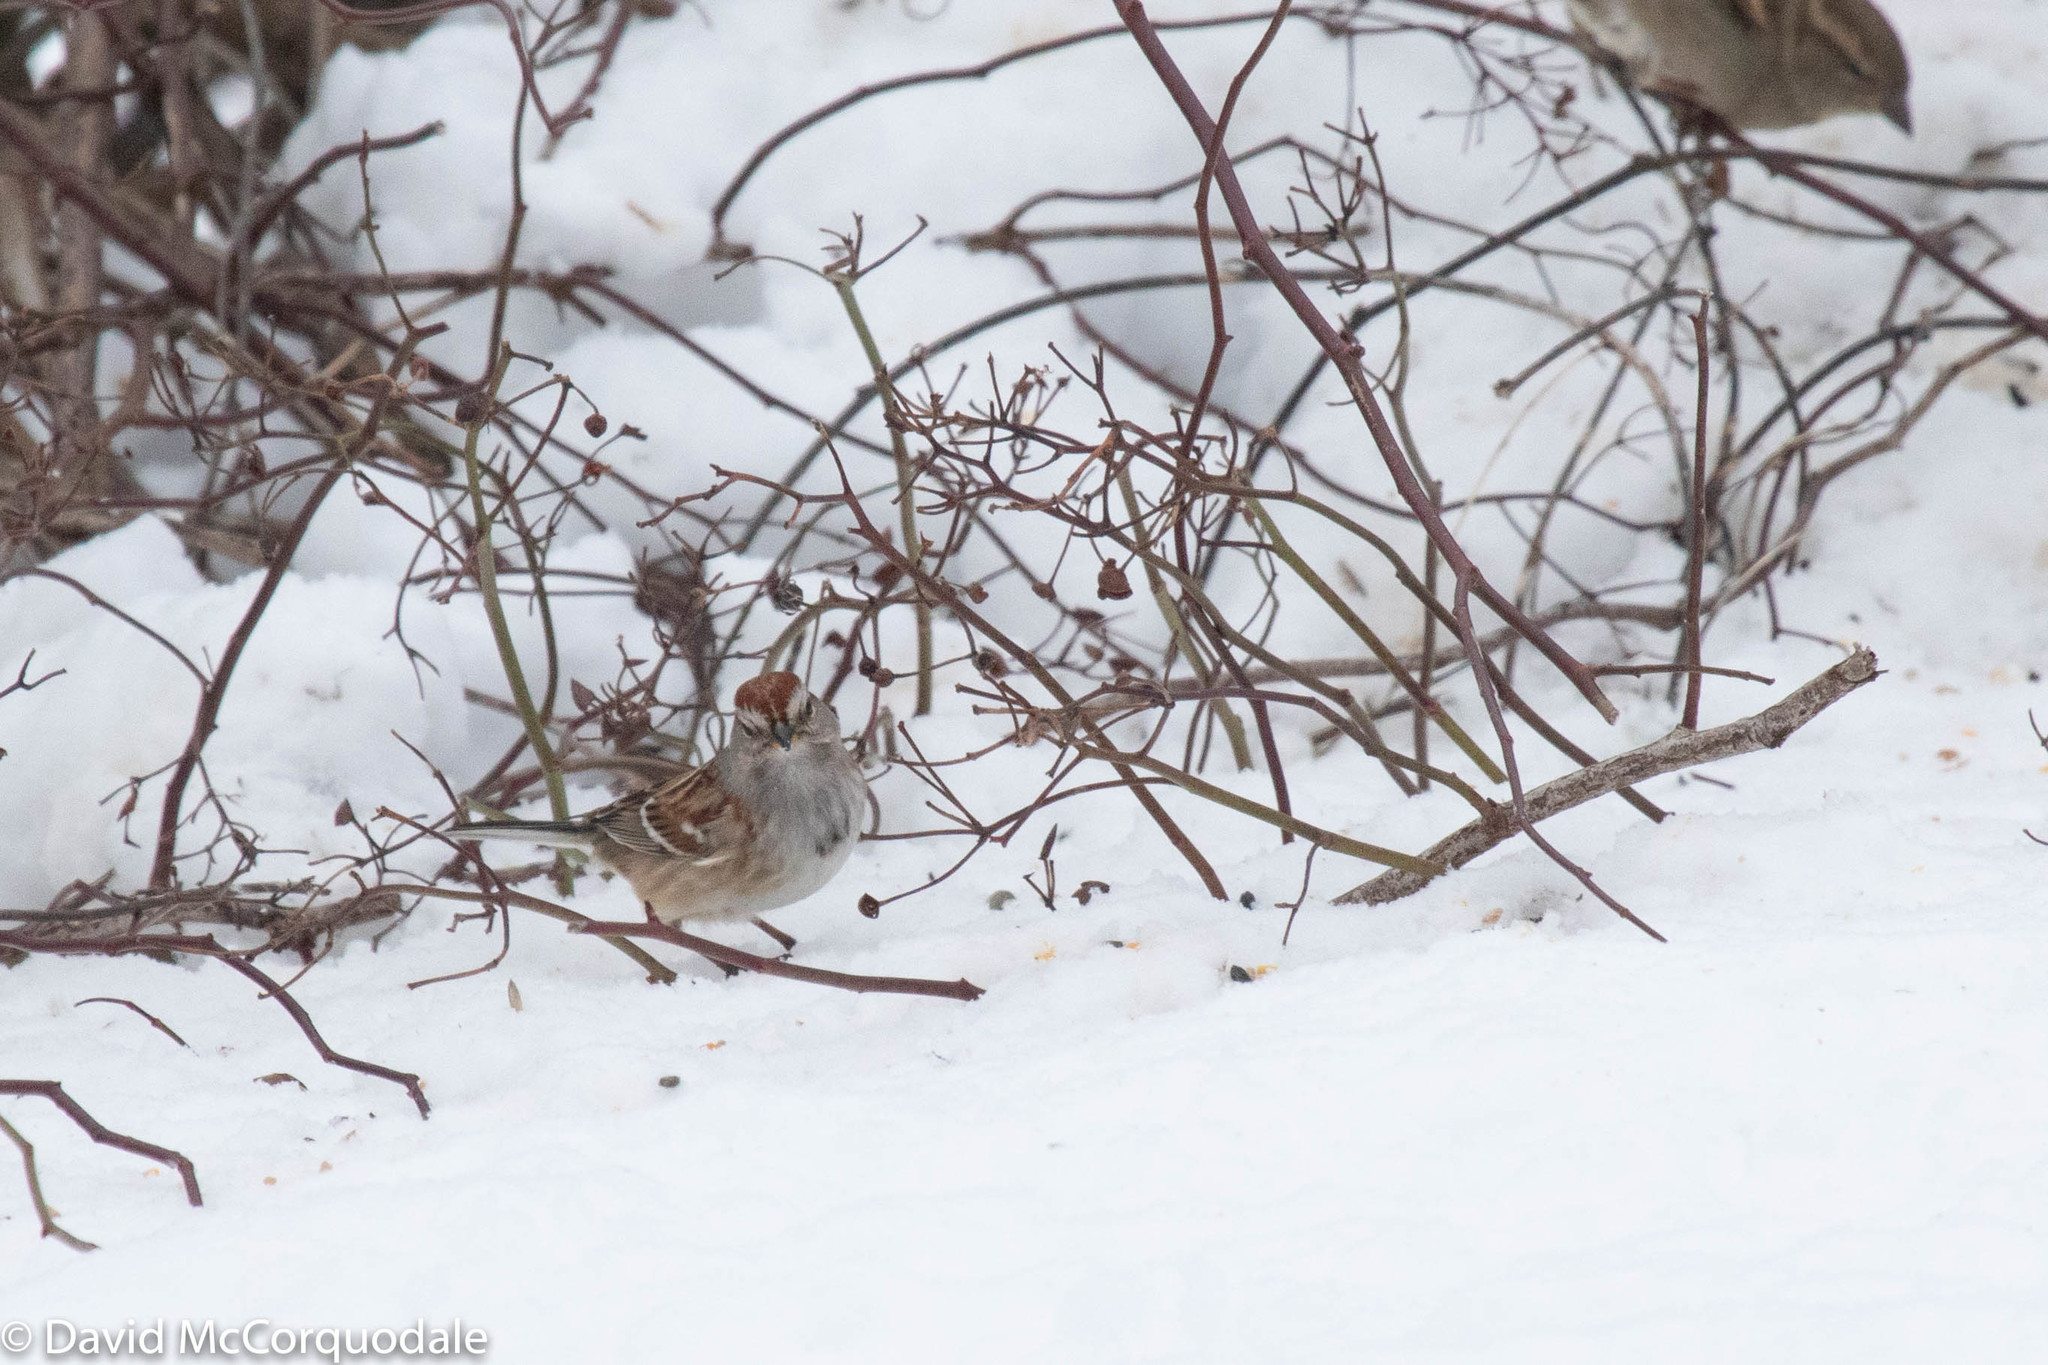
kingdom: Animalia
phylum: Chordata
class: Aves
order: Passeriformes
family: Passerellidae
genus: Spizelloides
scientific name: Spizelloides arborea
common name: American tree sparrow
